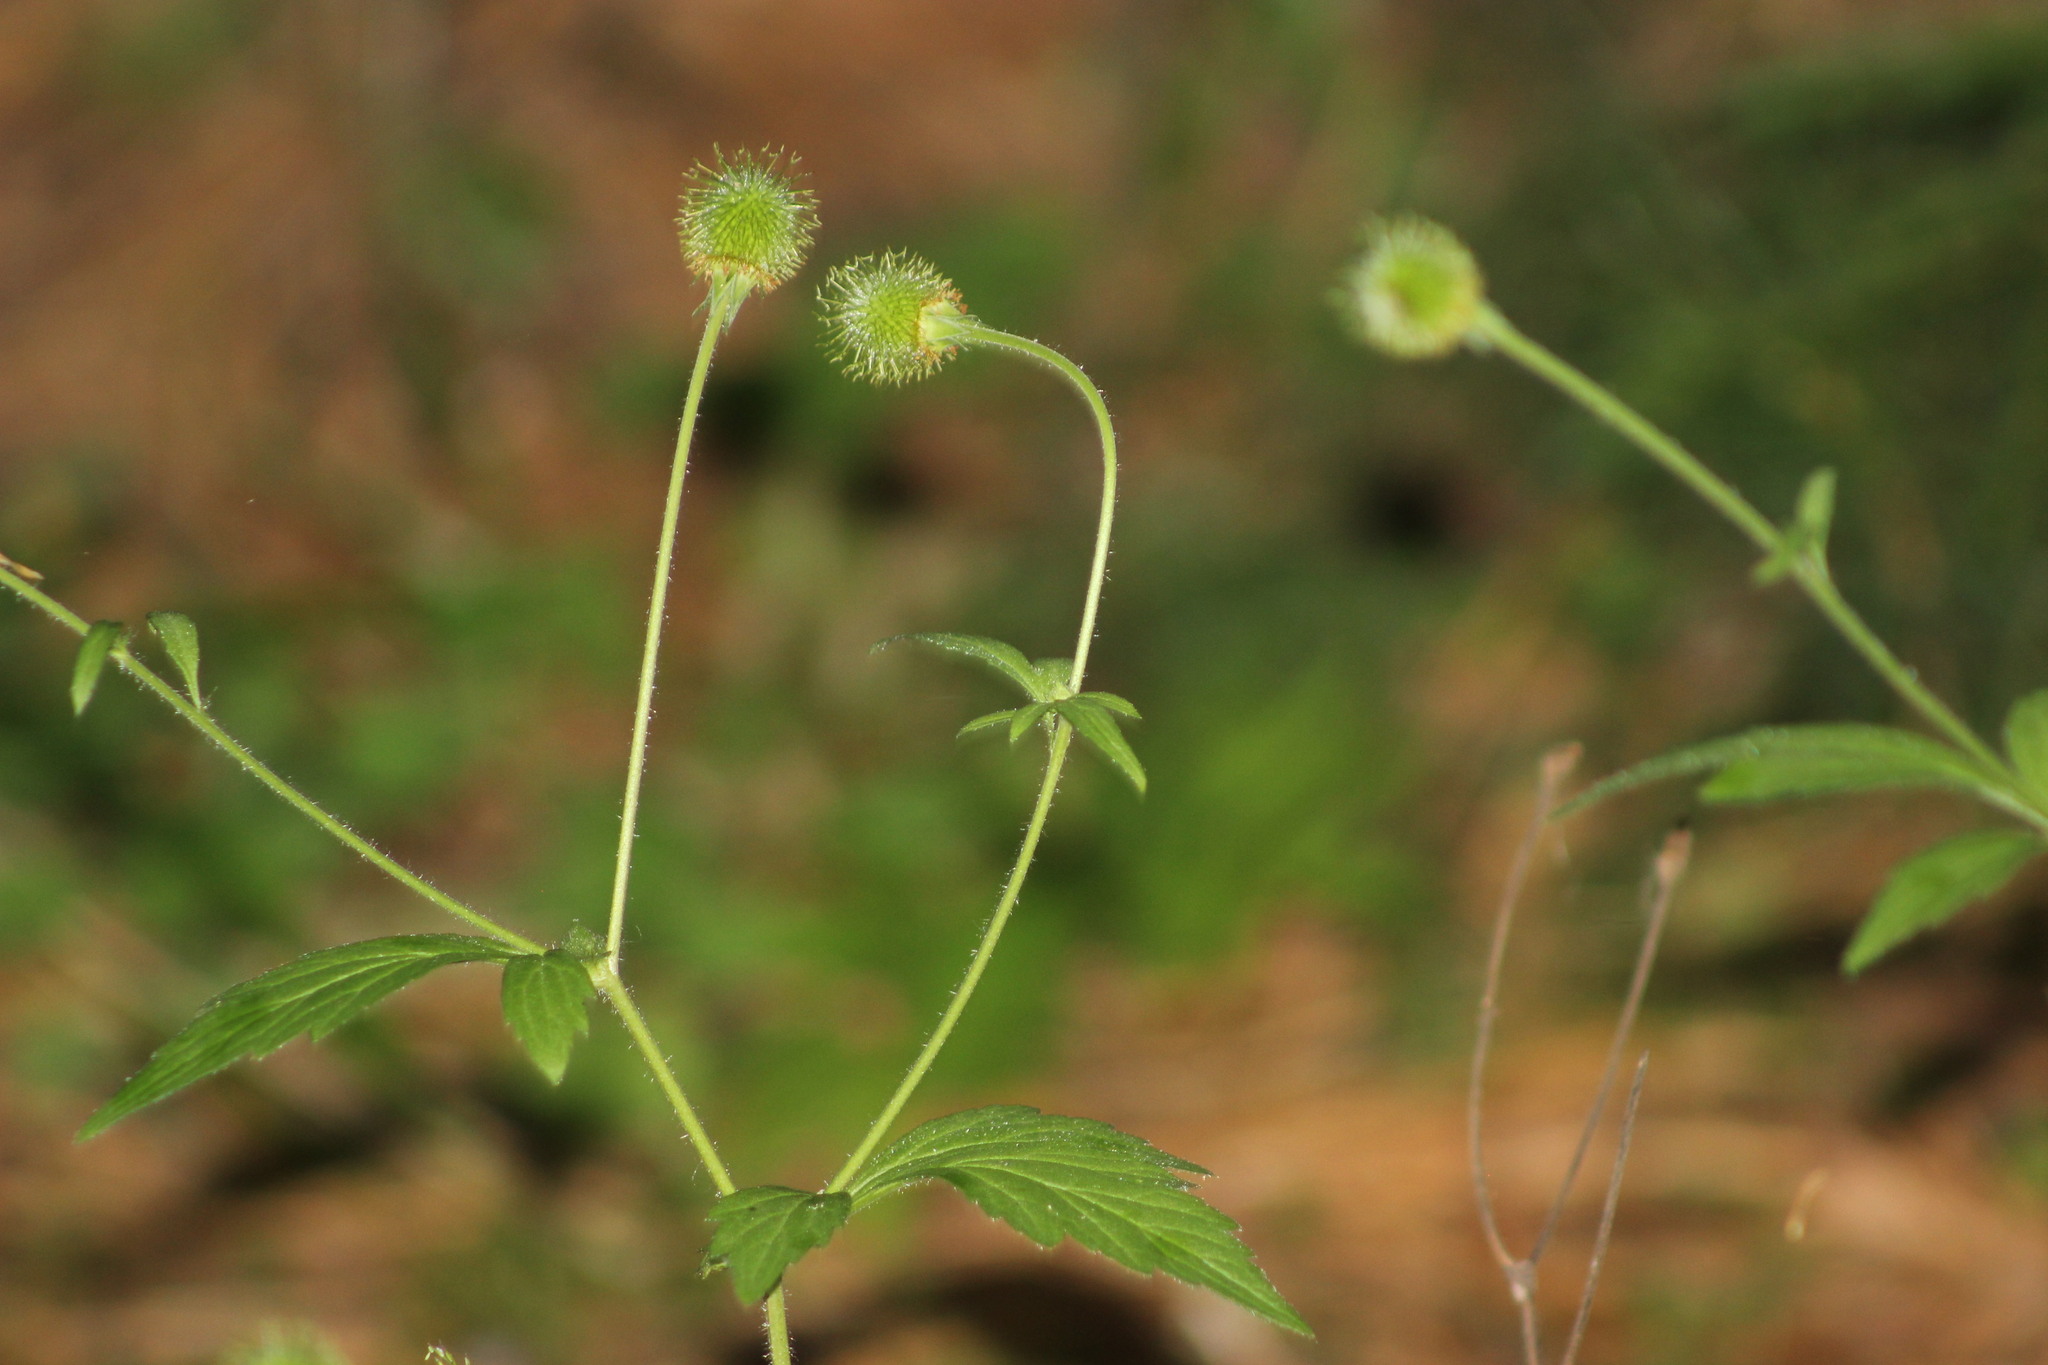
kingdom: Plantae
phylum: Tracheophyta
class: Magnoliopsida
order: Rosales
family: Rosaceae
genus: Geum
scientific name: Geum aleppicum
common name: Yellow avens
